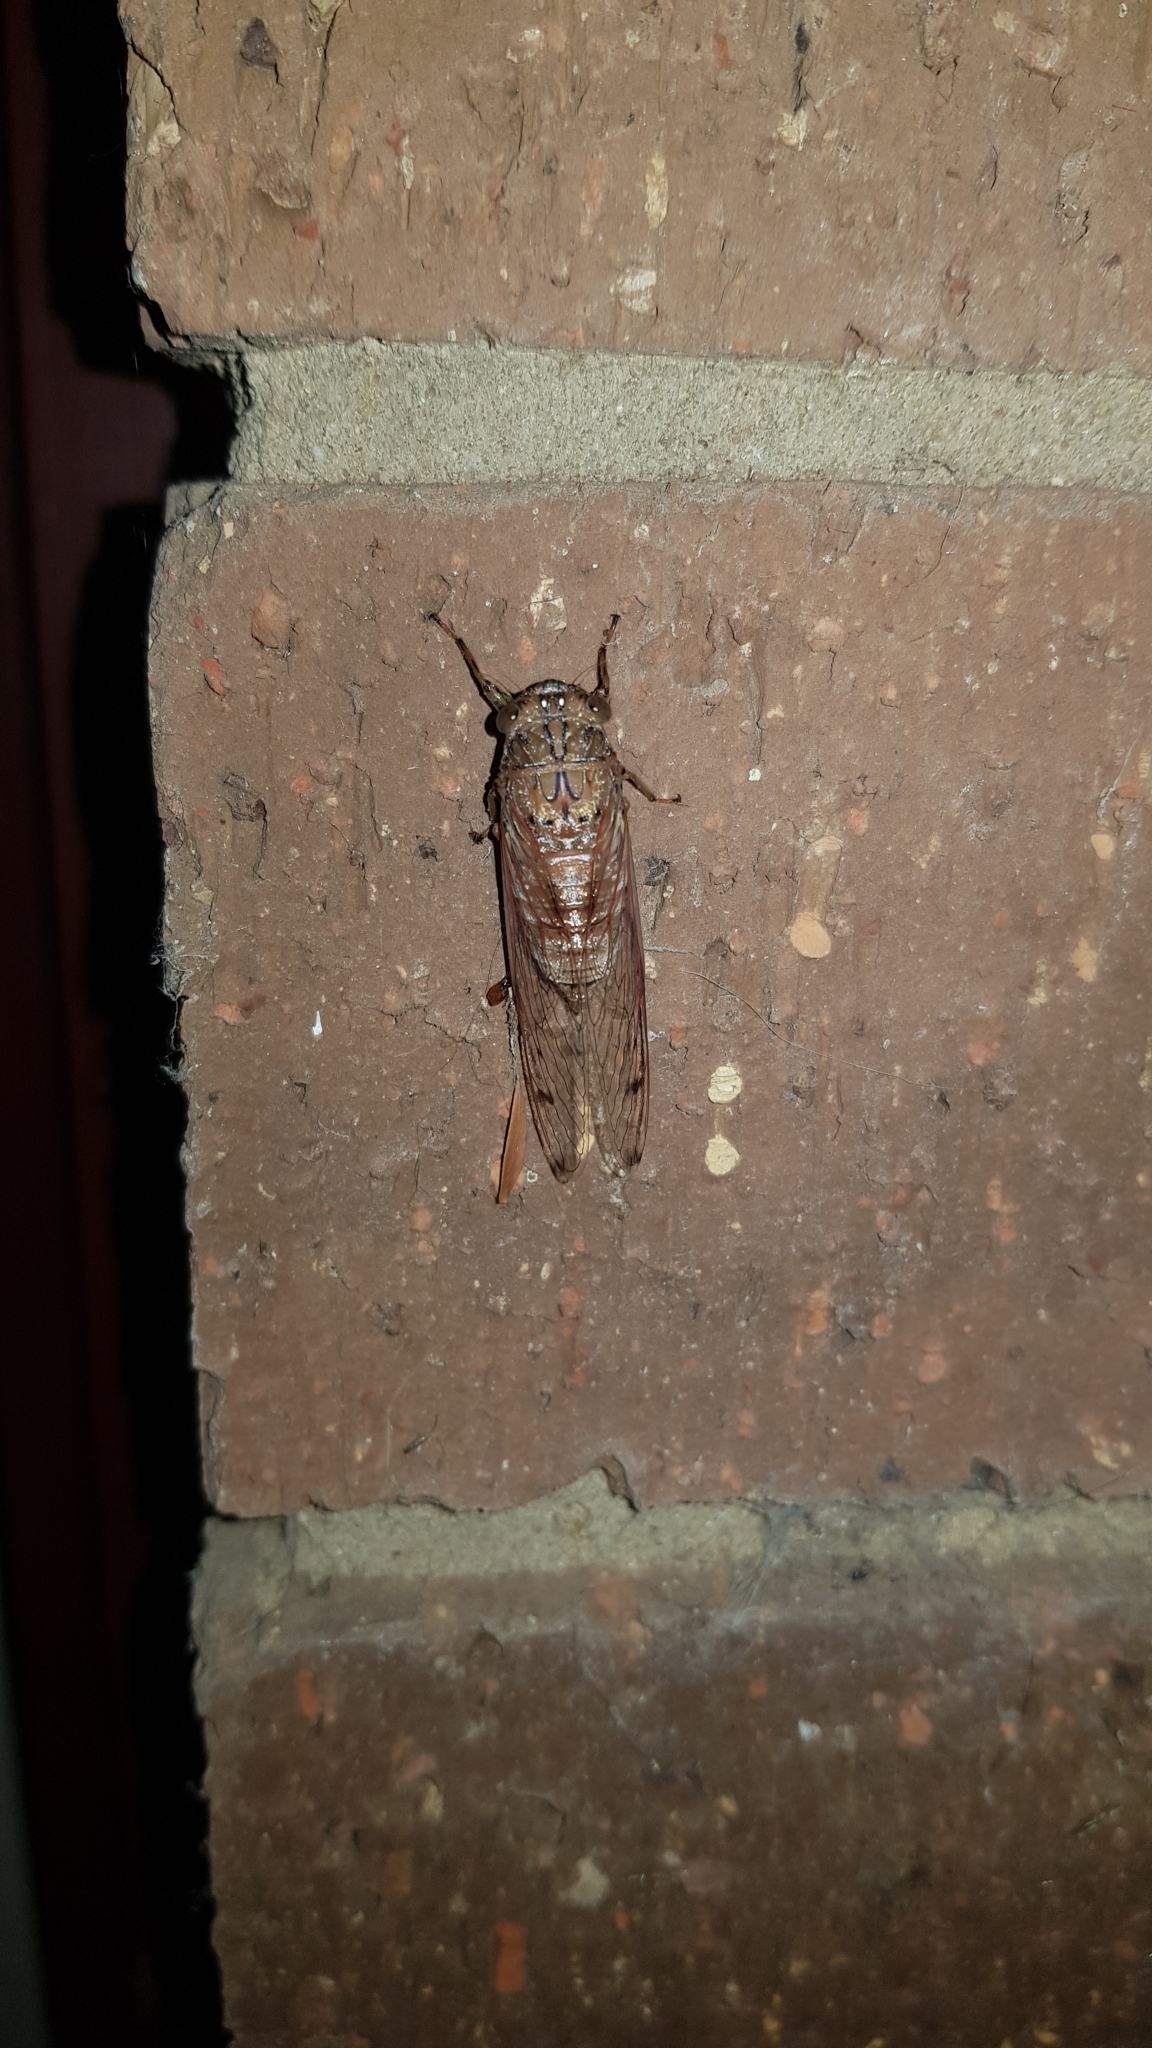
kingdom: Animalia
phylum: Arthropoda
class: Insecta
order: Hemiptera
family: Cicadidae
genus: Tamasa
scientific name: Tamasa tristigma
